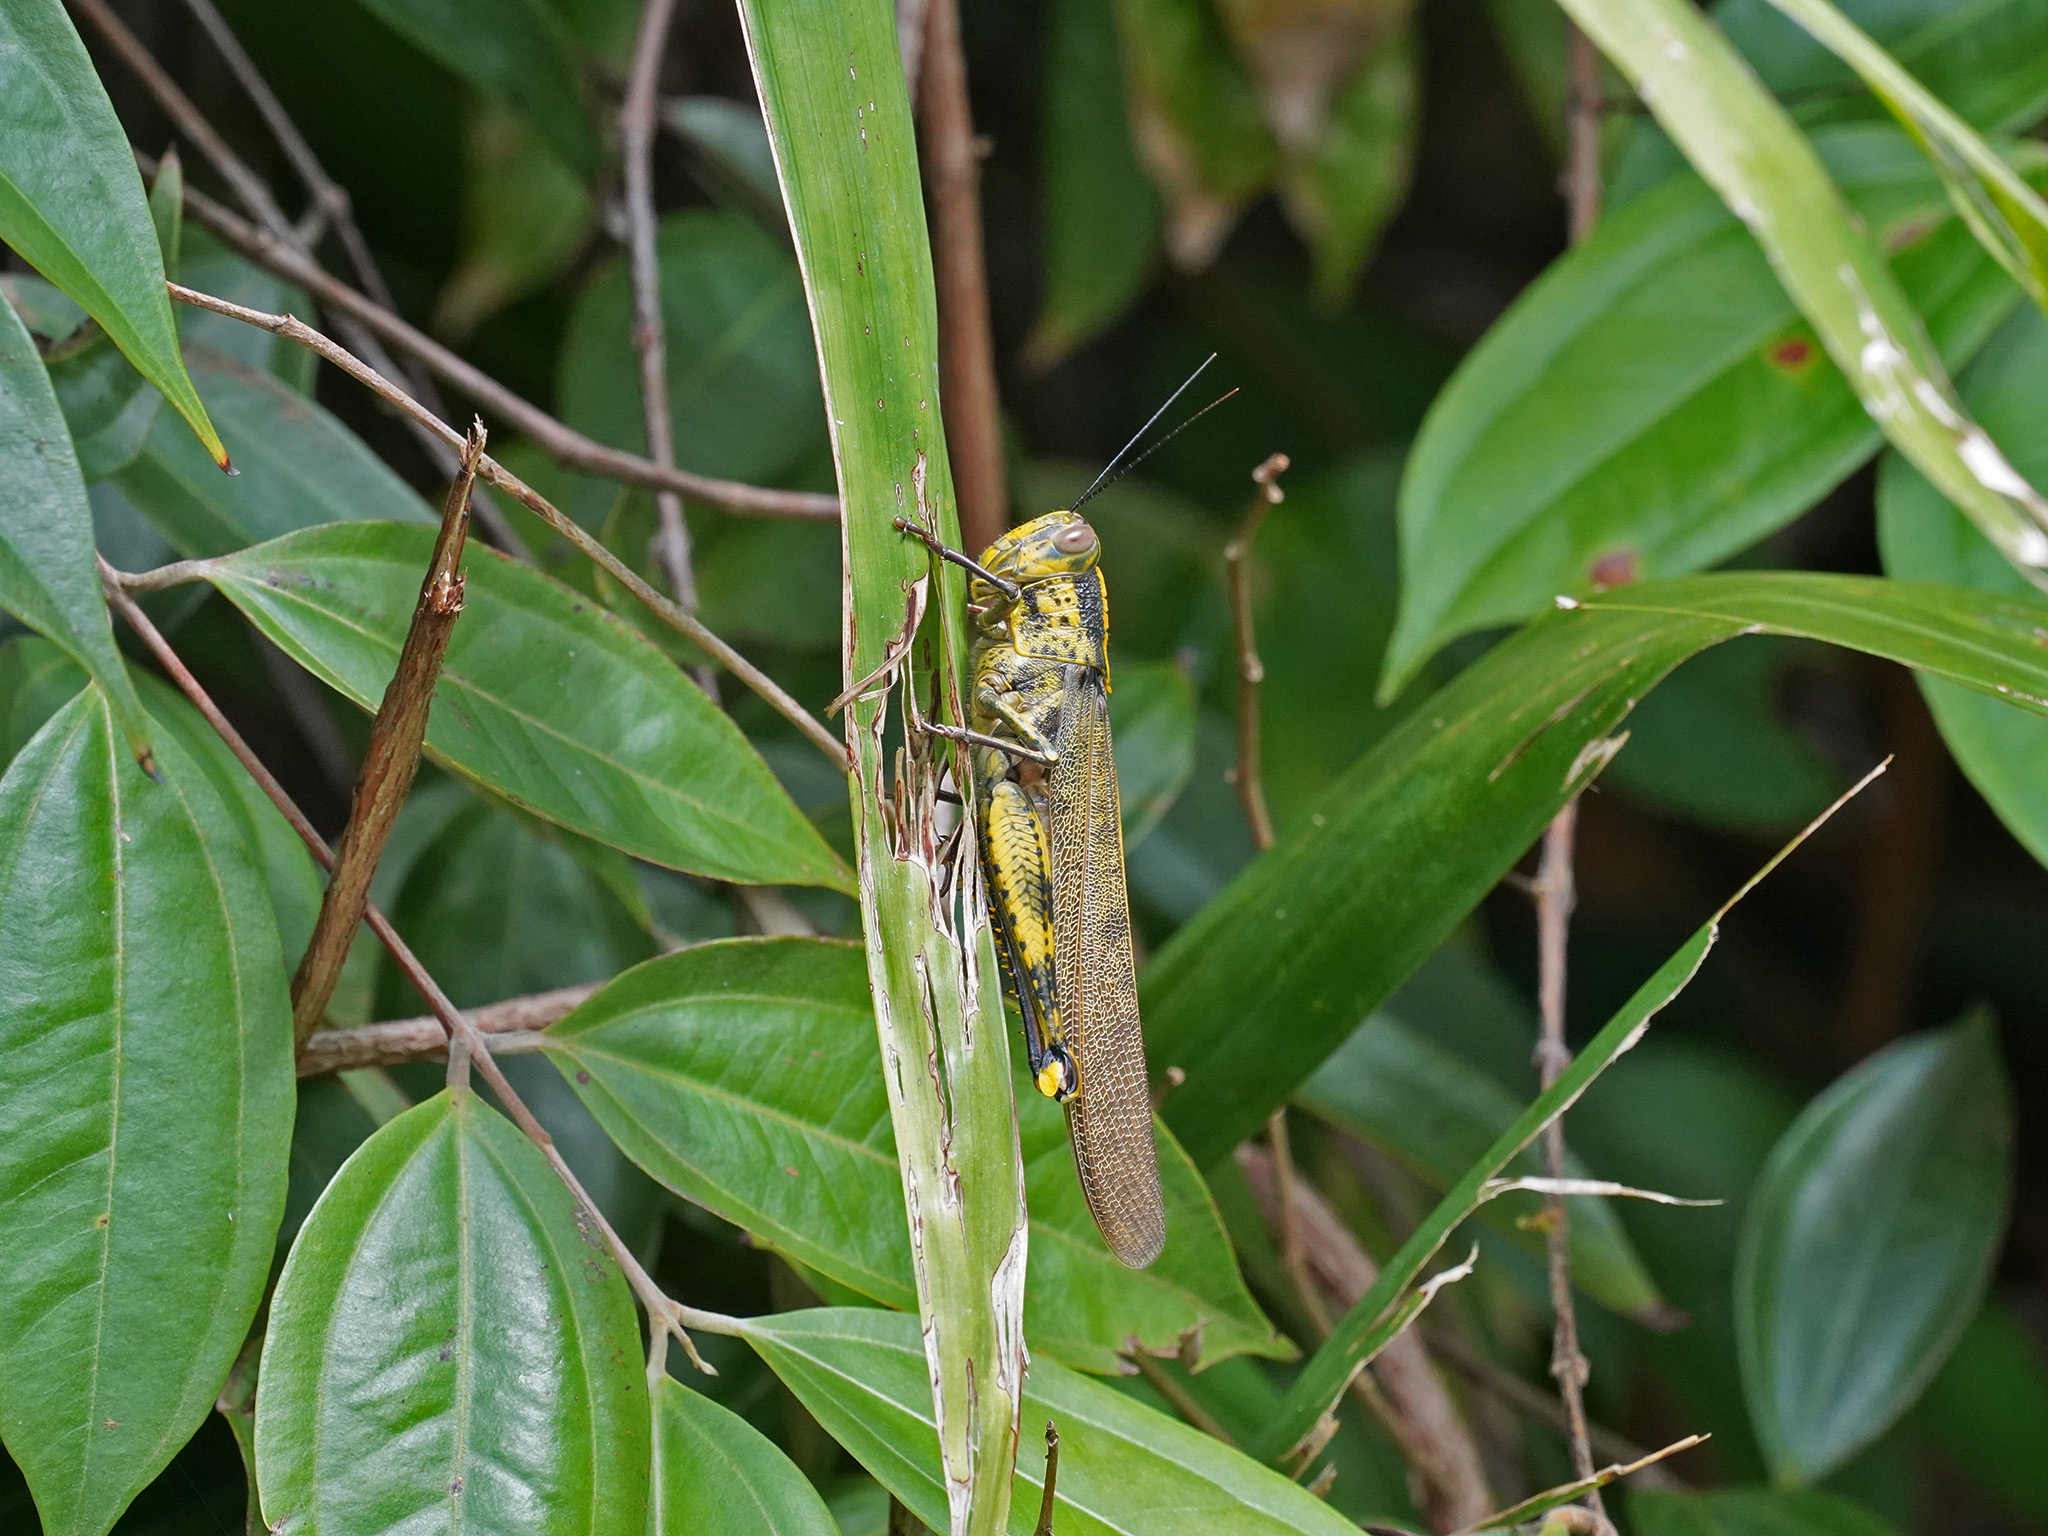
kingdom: Animalia
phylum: Arthropoda
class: Insecta
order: Orthoptera
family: Acrididae
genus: Valanga
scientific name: Valanga nigricornis
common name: Javanese bird grasshopper
